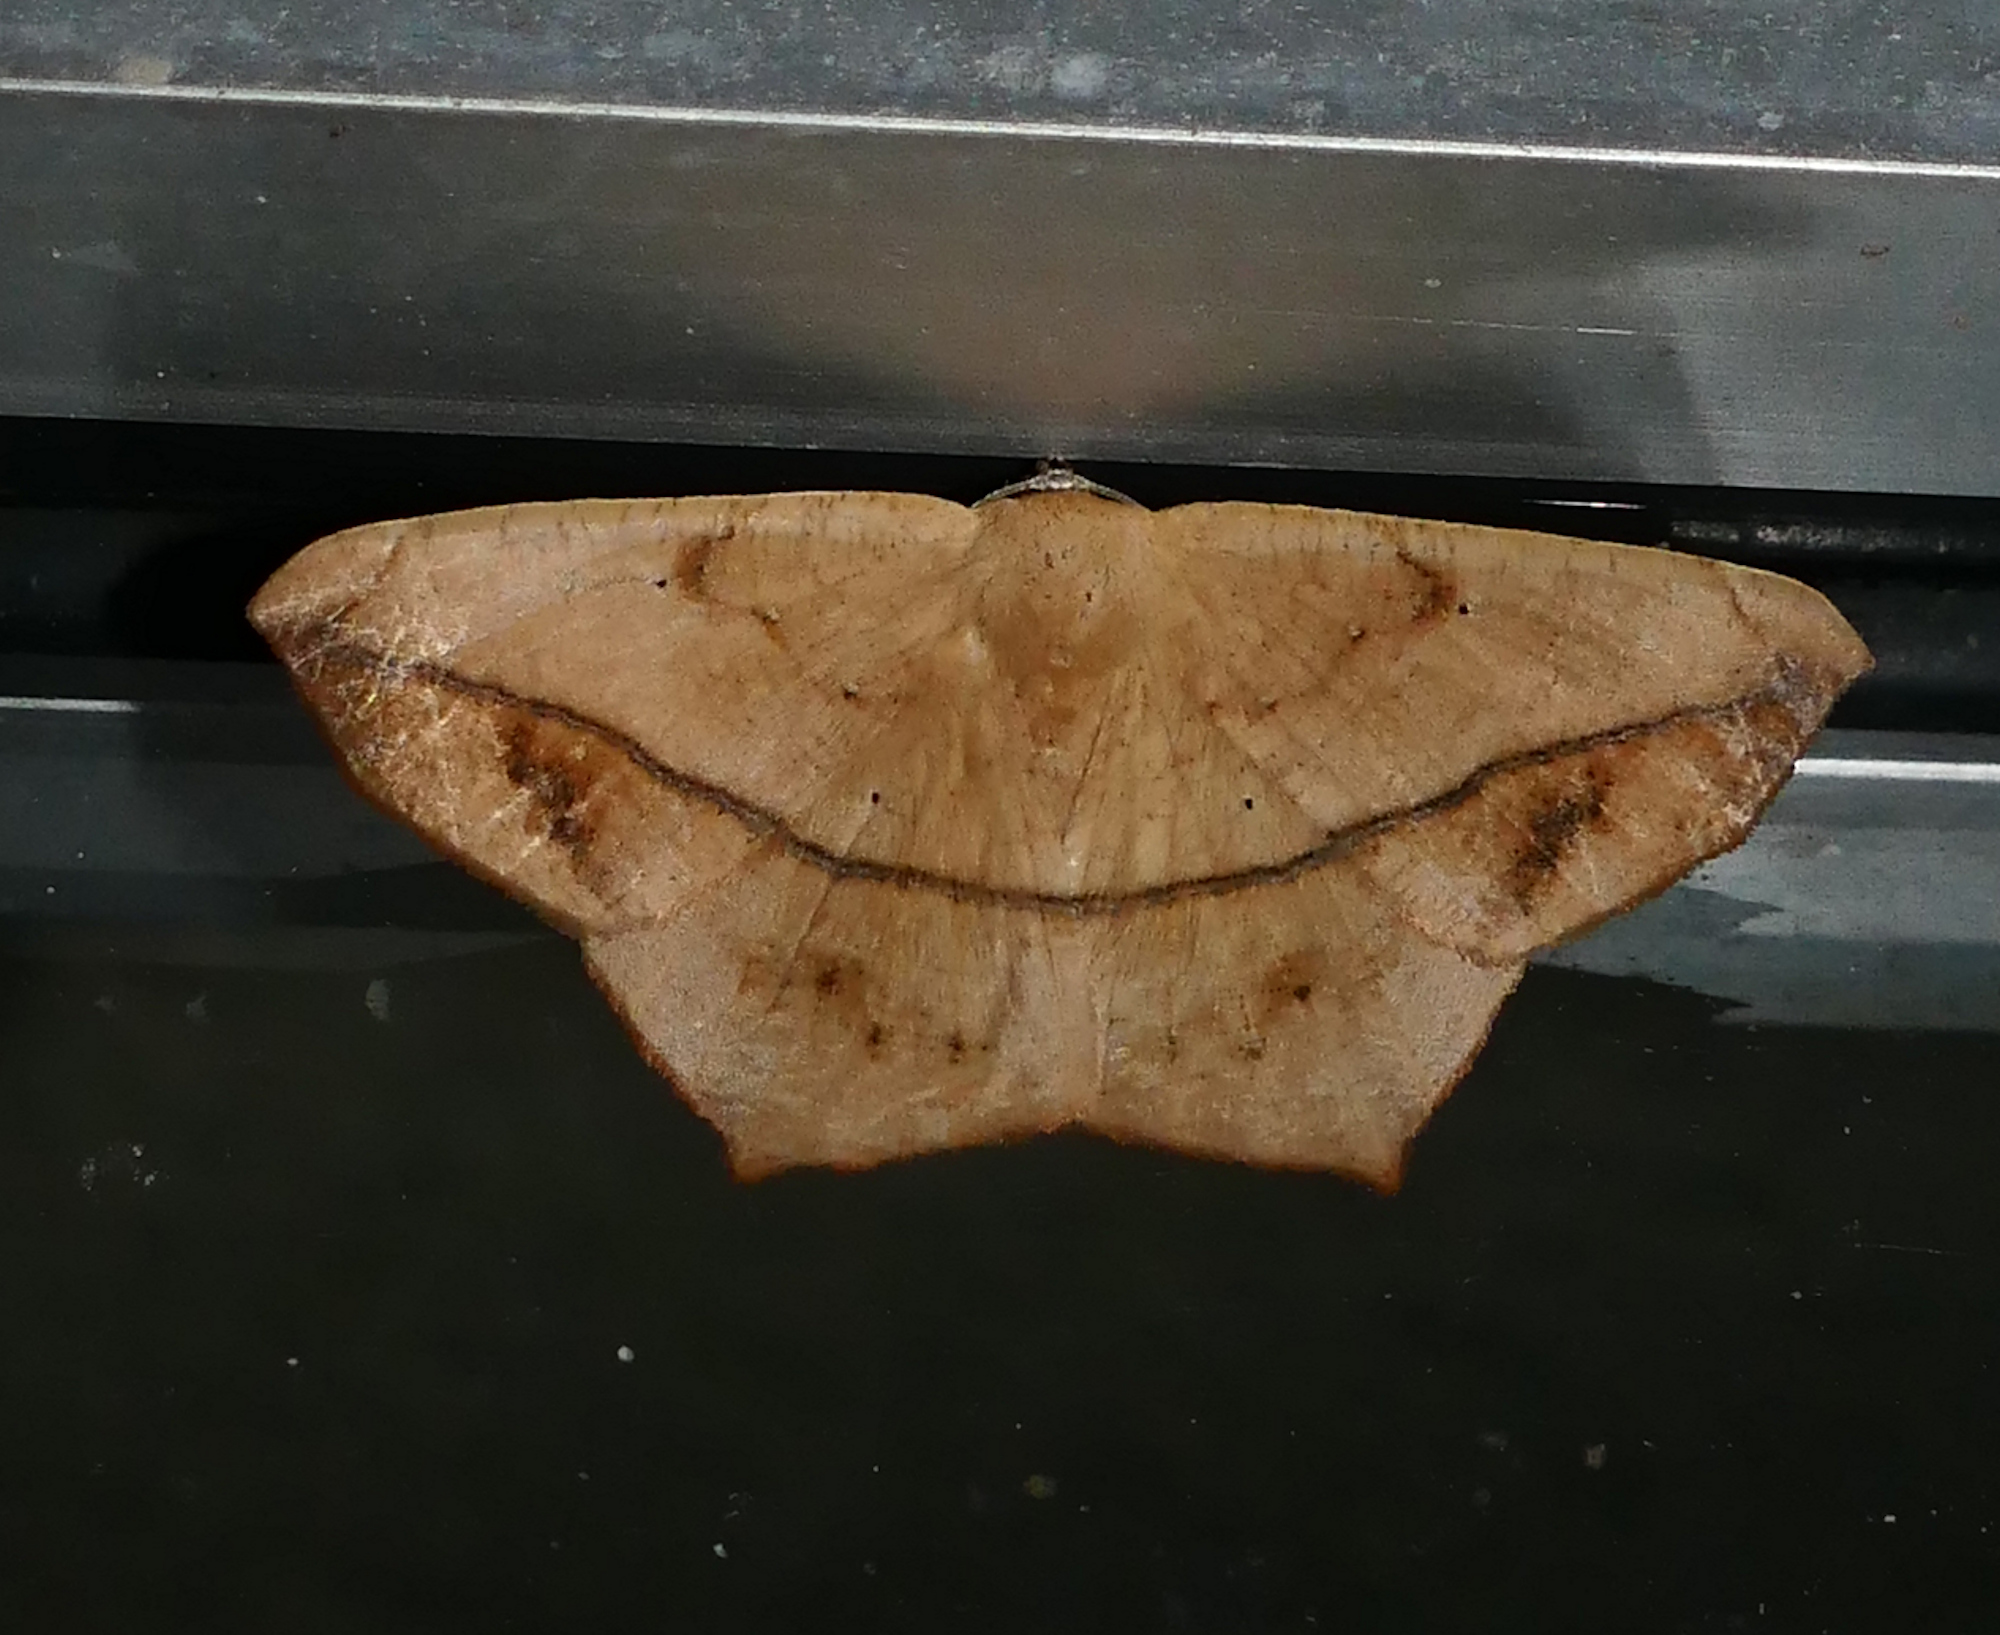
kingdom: Animalia
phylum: Arthropoda
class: Insecta
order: Lepidoptera
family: Geometridae
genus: Prochoerodes
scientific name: Prochoerodes lineola
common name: Large maple spanworm
